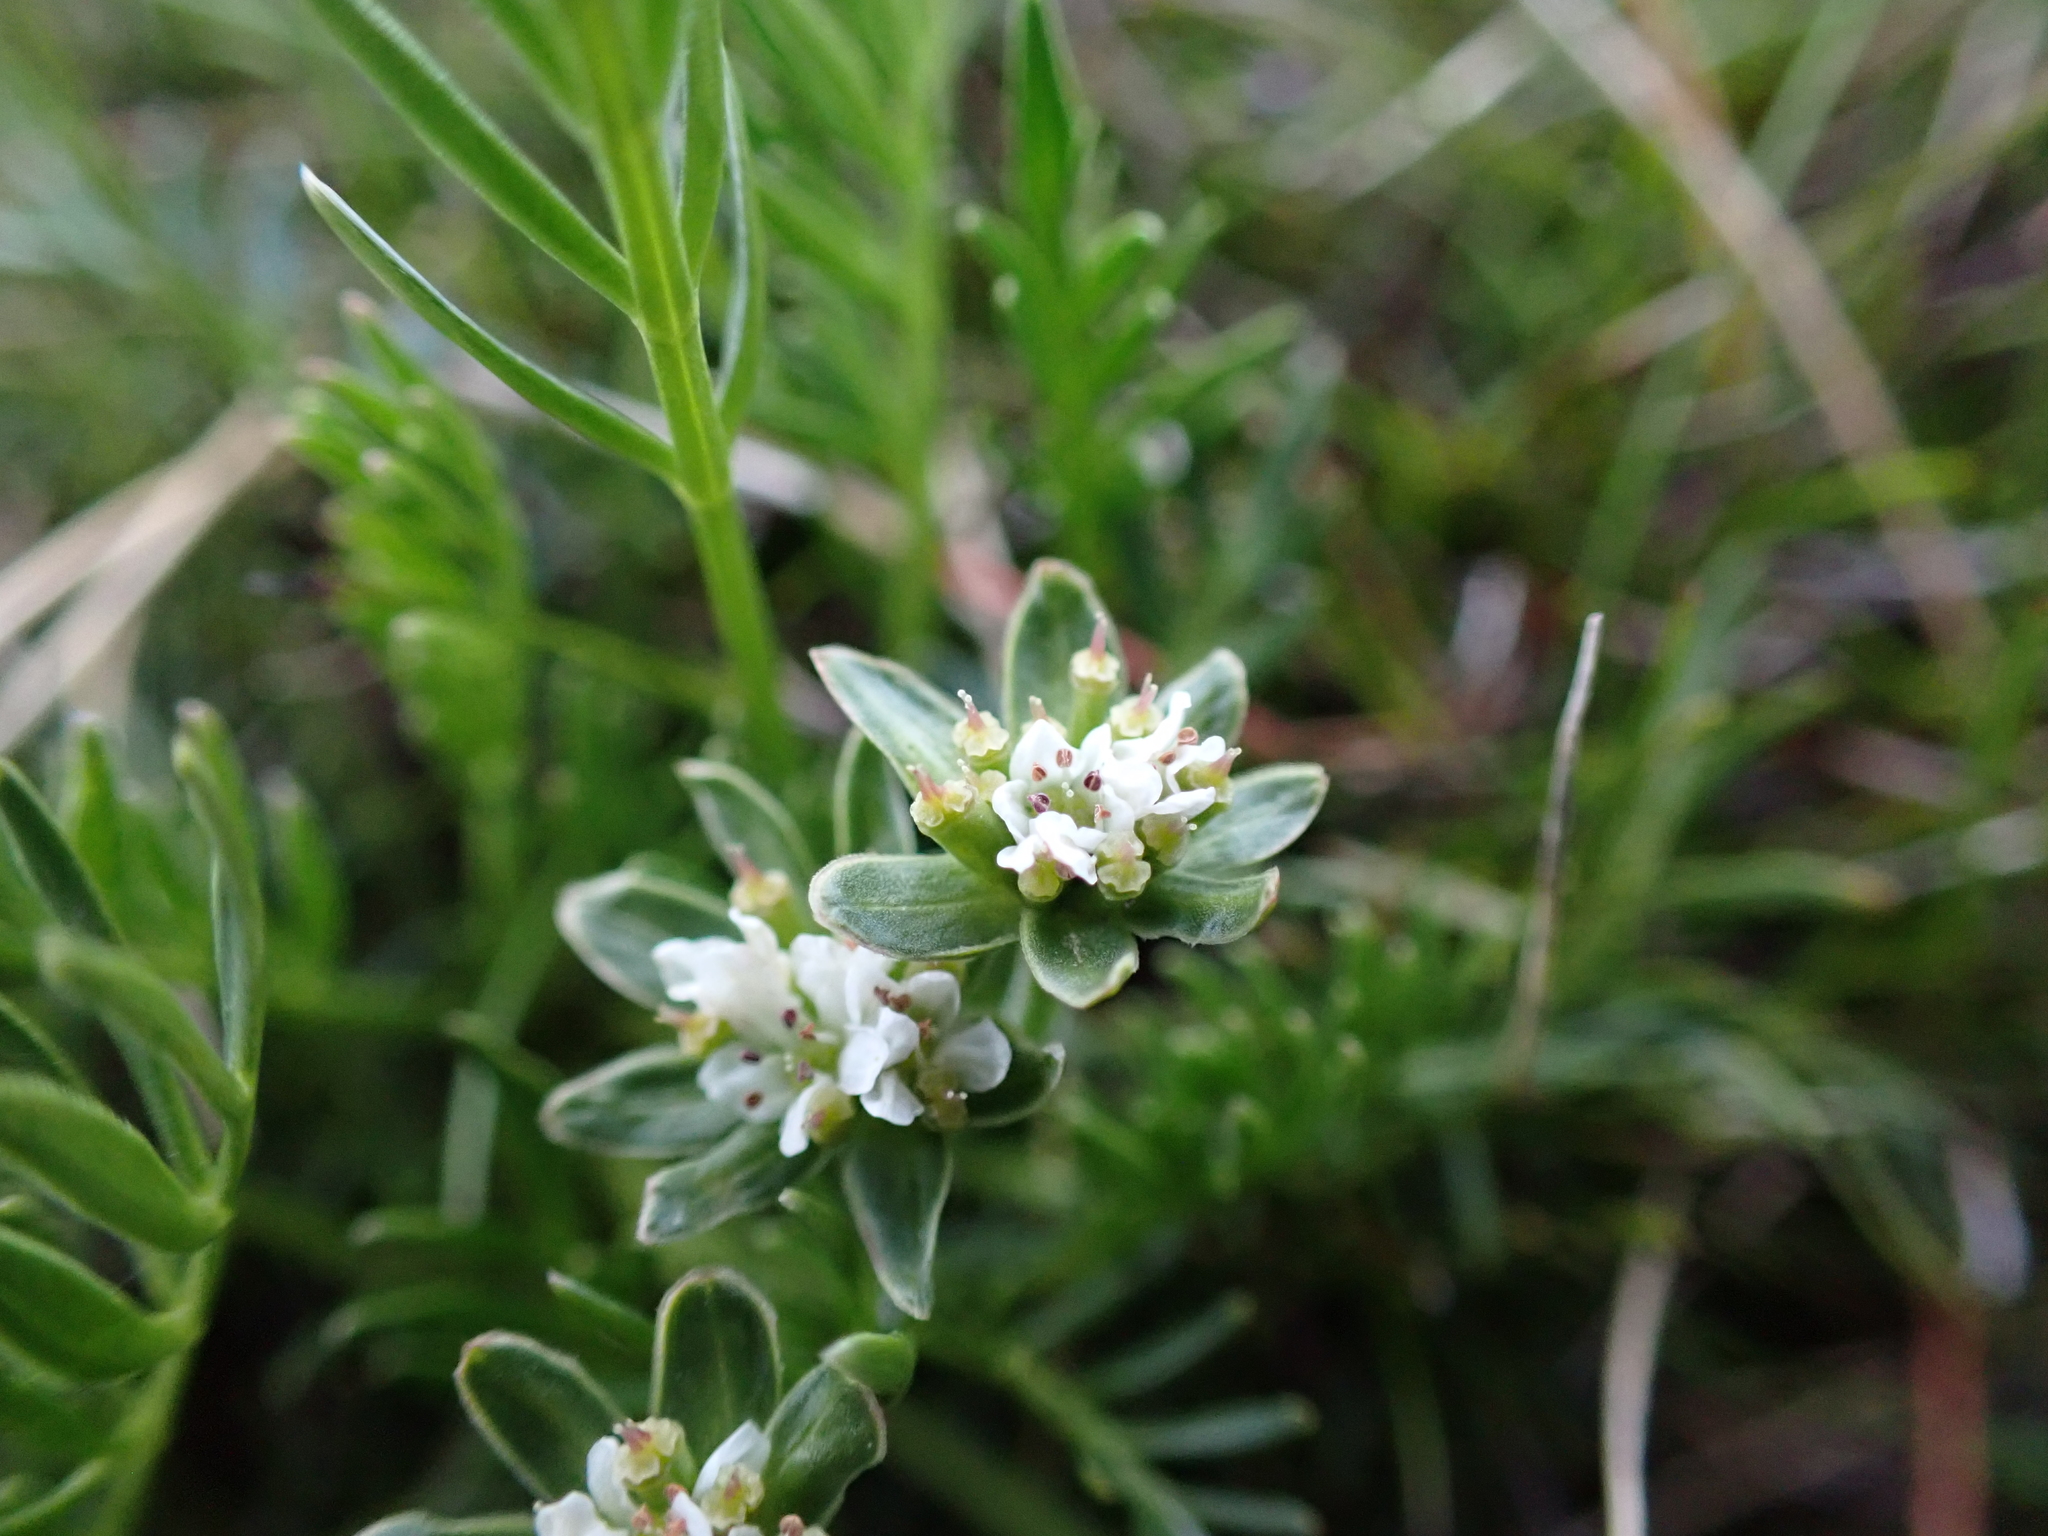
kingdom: Plantae
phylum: Tracheophyta
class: Magnoliopsida
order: Apiales
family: Apiaceae
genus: Chaerophyllum
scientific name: Chaerophyllum pulvinificum
